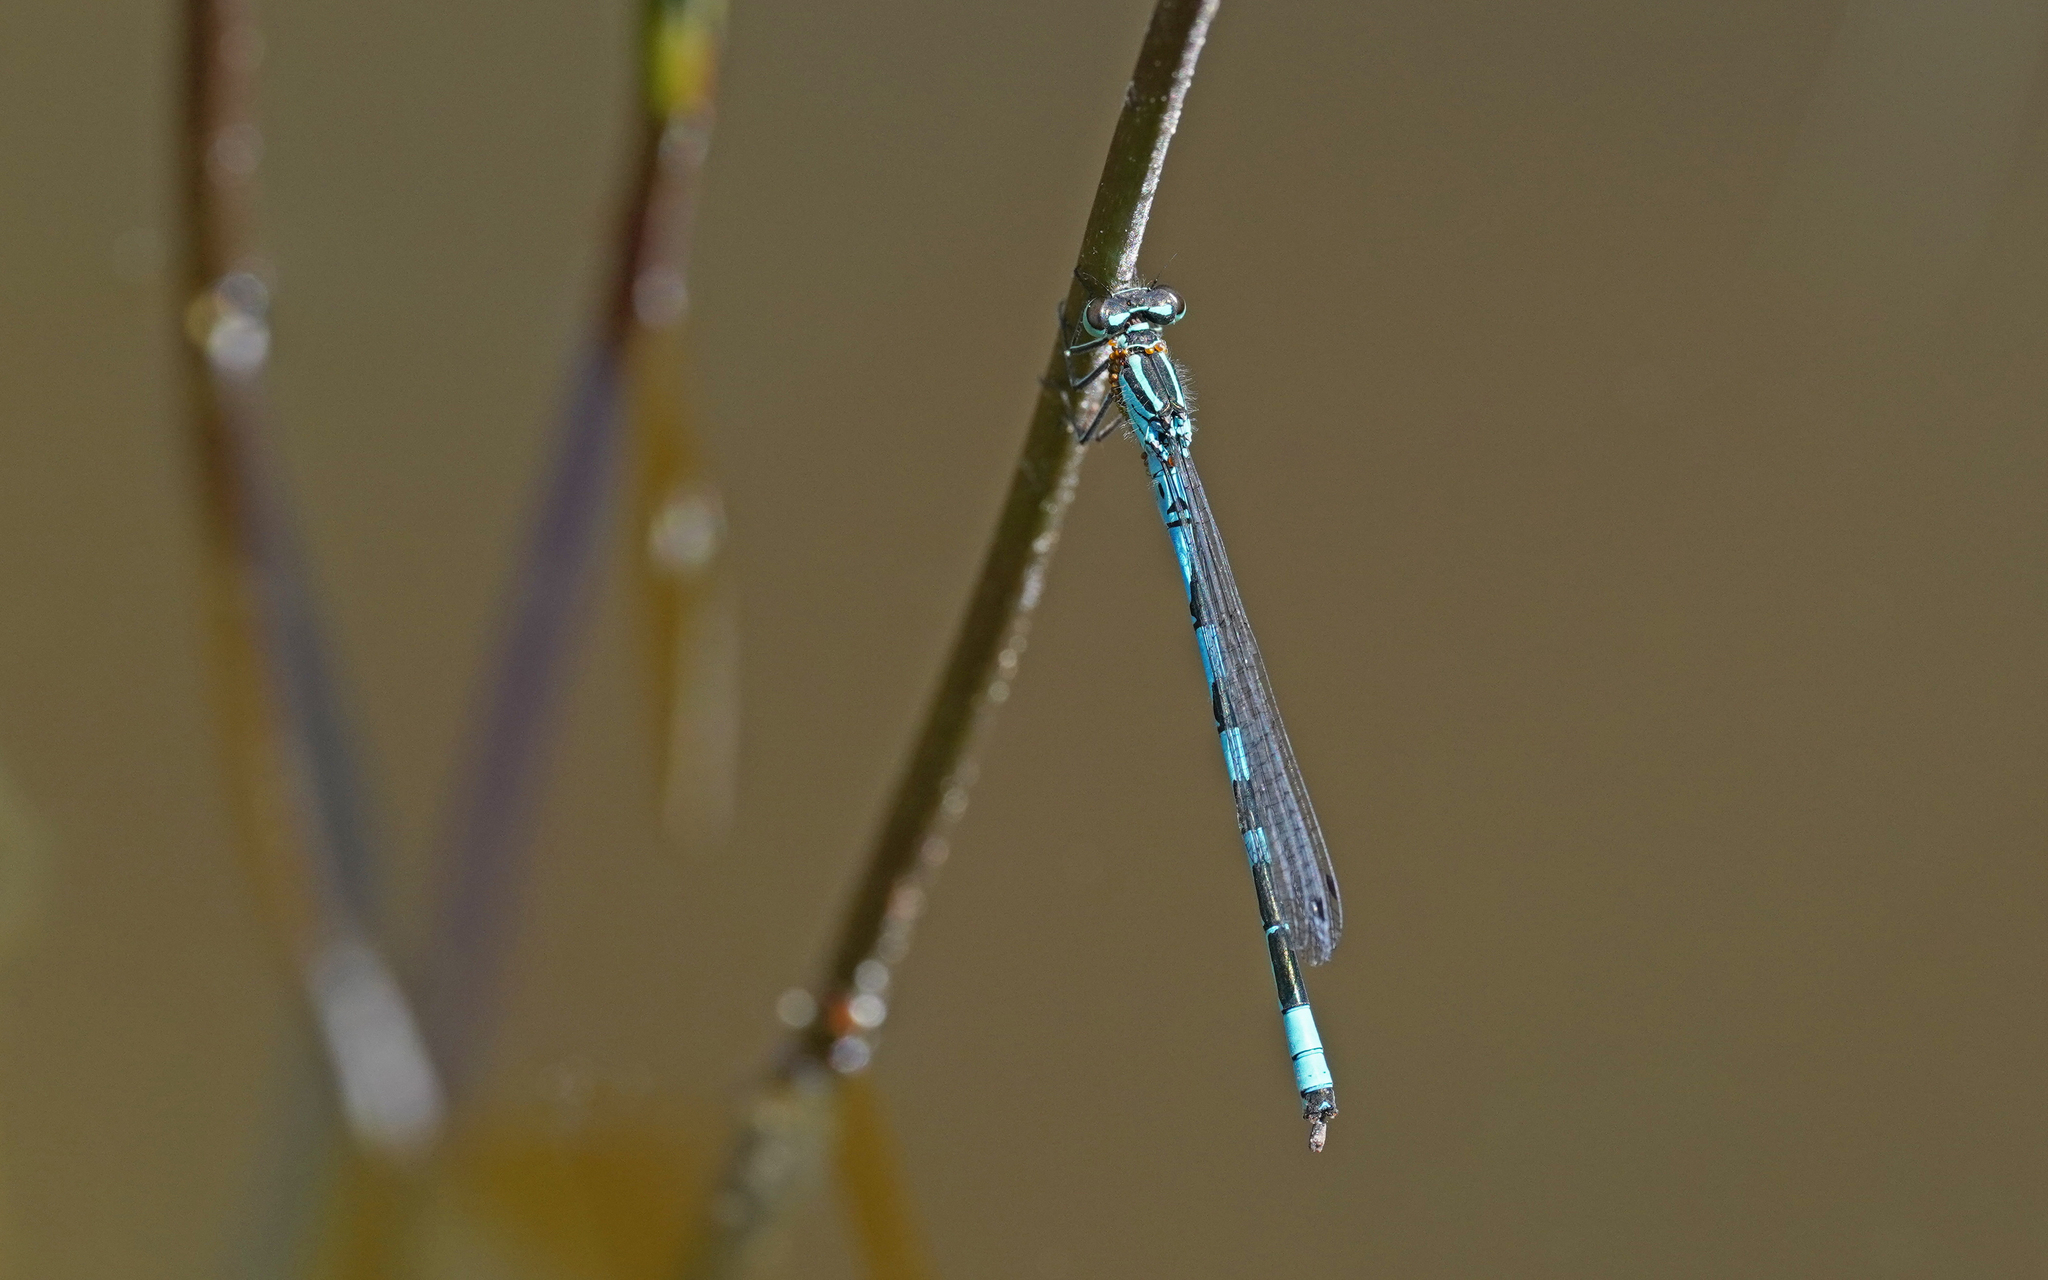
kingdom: Animalia
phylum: Arthropoda
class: Insecta
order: Odonata
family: Coenagrionidae
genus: Coenagrion
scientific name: Coenagrion hastulatum
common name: Spearhead bluet
